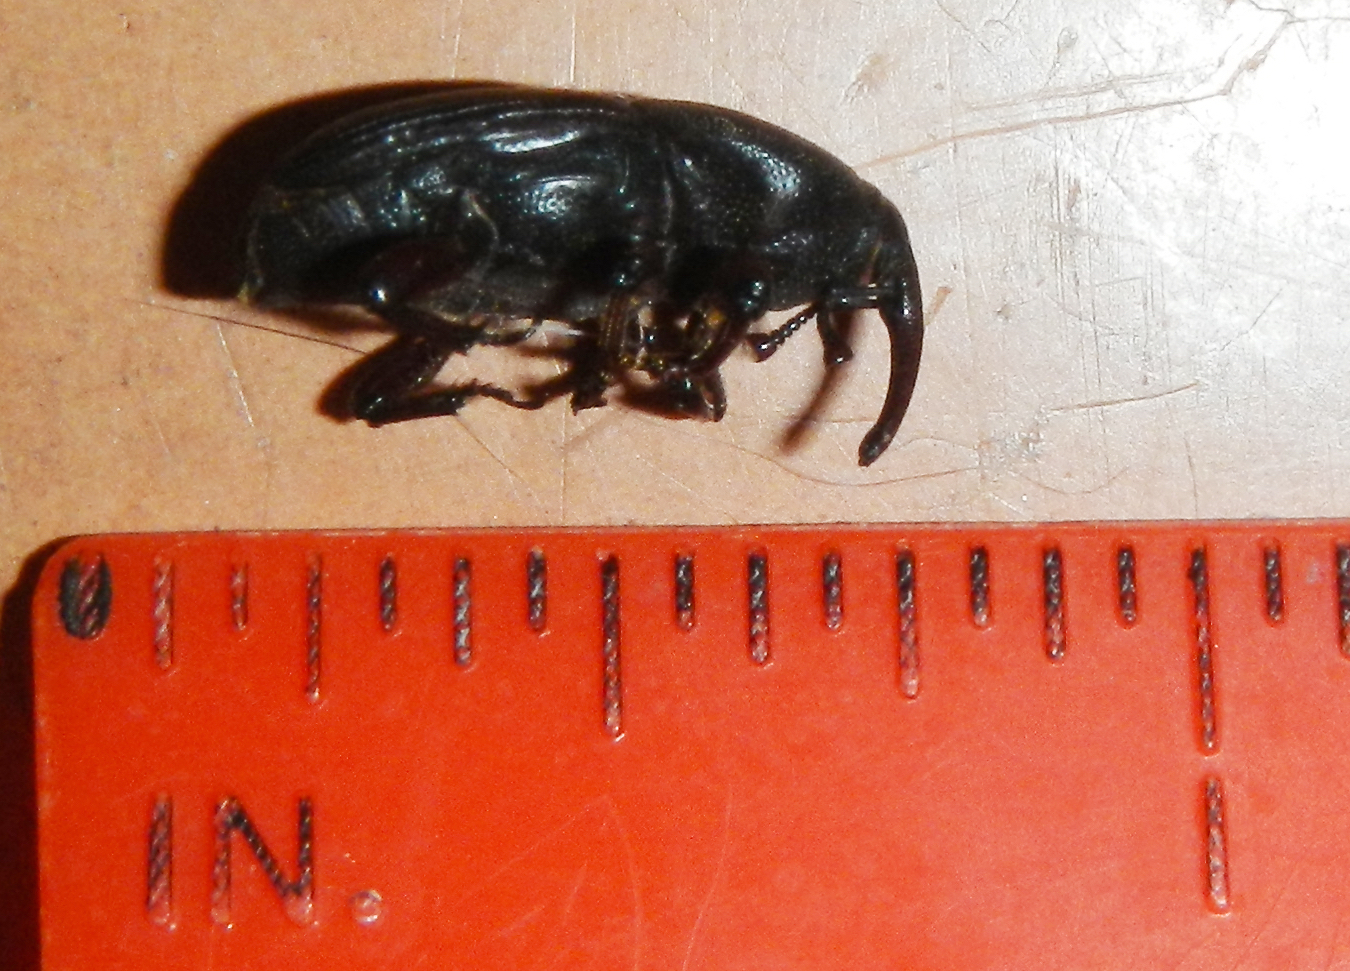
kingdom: Animalia
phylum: Arthropoda
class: Insecta
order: Coleoptera
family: Dryophthoridae
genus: Scyphophorus
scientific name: Scyphophorus acupunctatus
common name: Weevil
